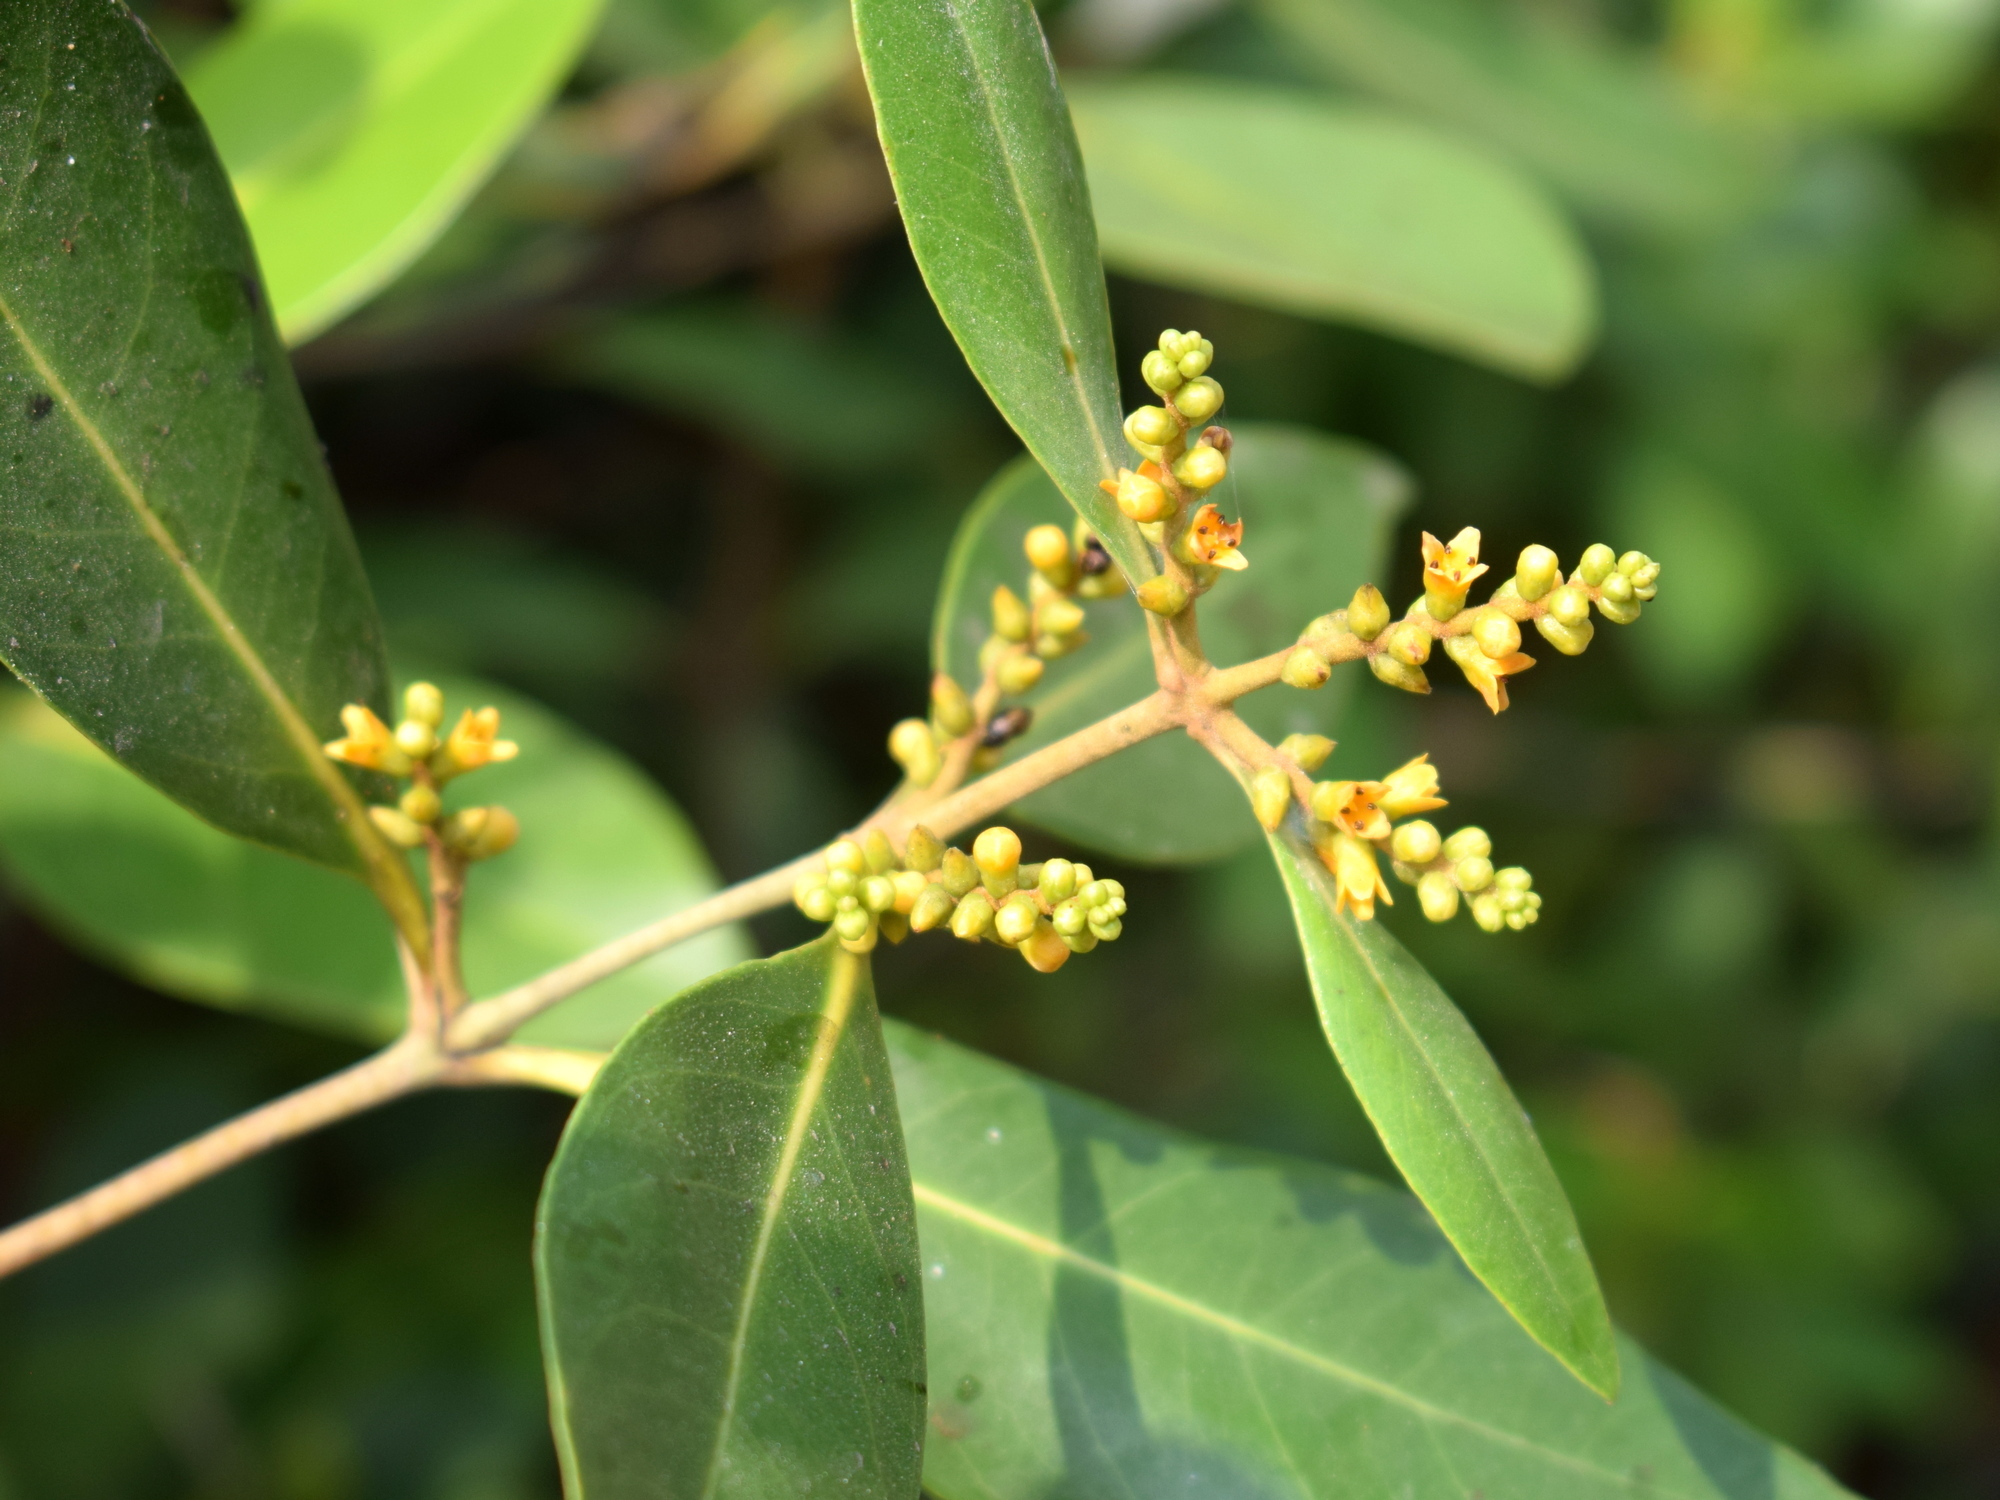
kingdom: Plantae
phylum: Tracheophyta
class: Magnoliopsida
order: Lamiales
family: Acanthaceae
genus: Avicennia
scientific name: Avicennia alba
